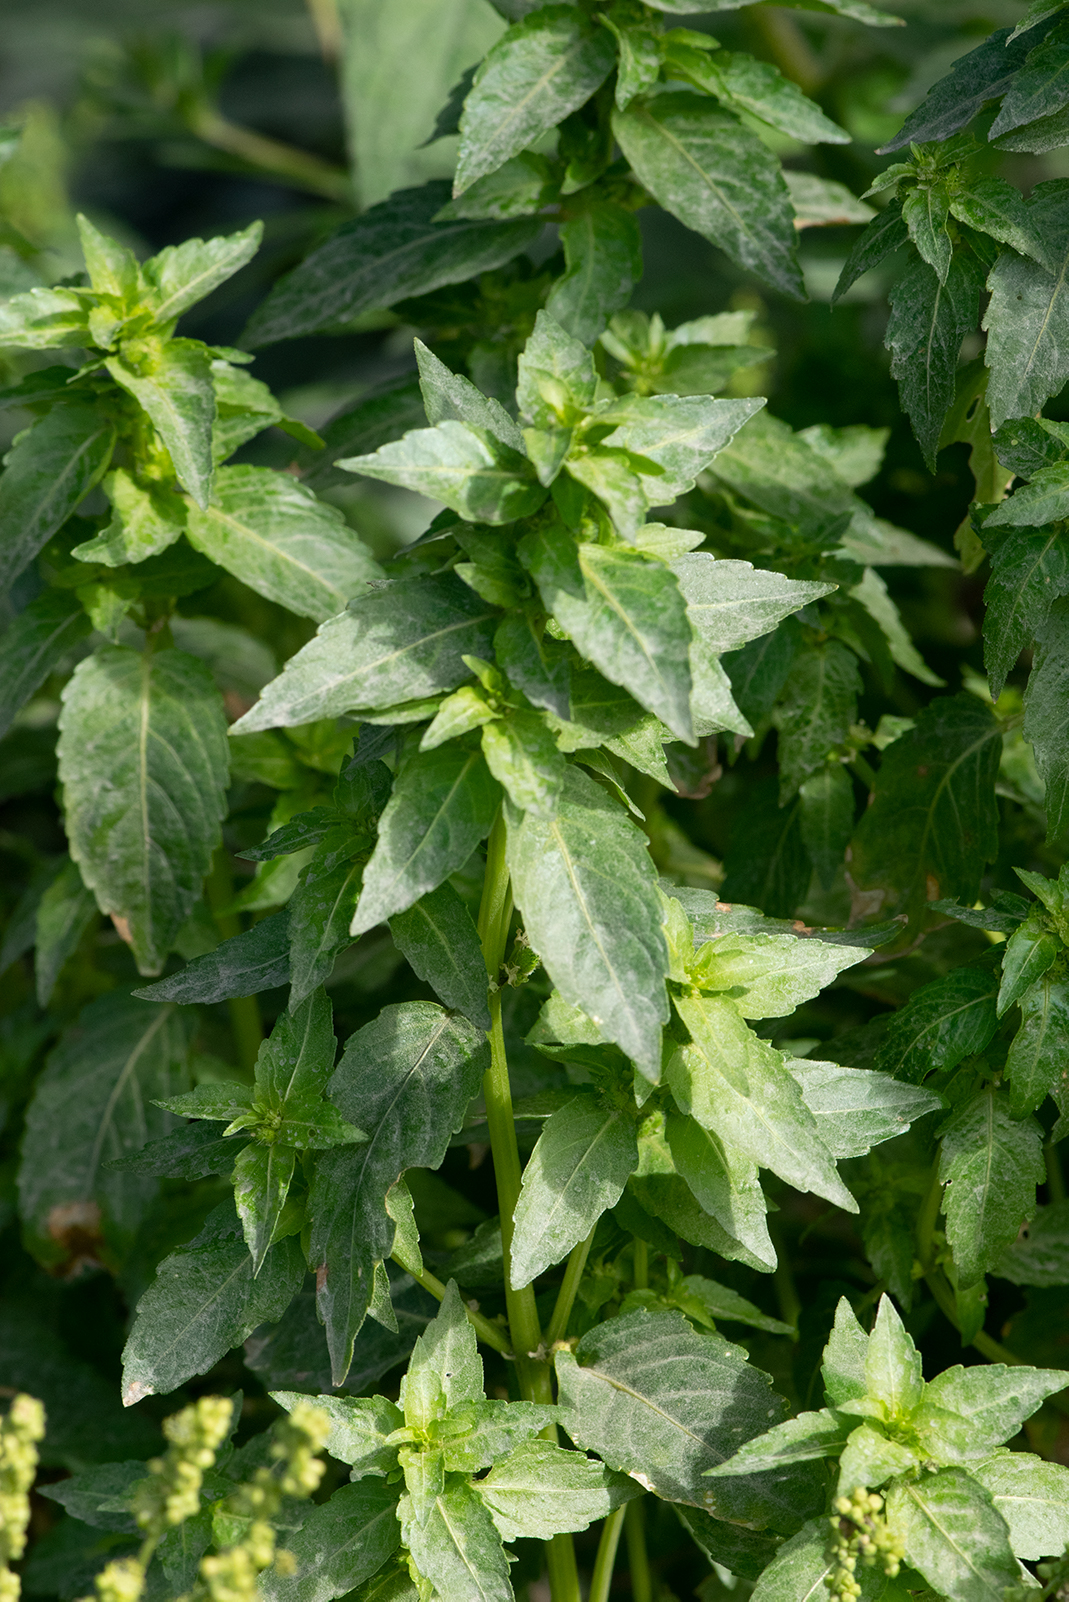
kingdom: Plantae
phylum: Tracheophyta
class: Magnoliopsida
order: Malpighiales
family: Euphorbiaceae
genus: Mercurialis
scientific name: Mercurialis annua
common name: Annual mercury
